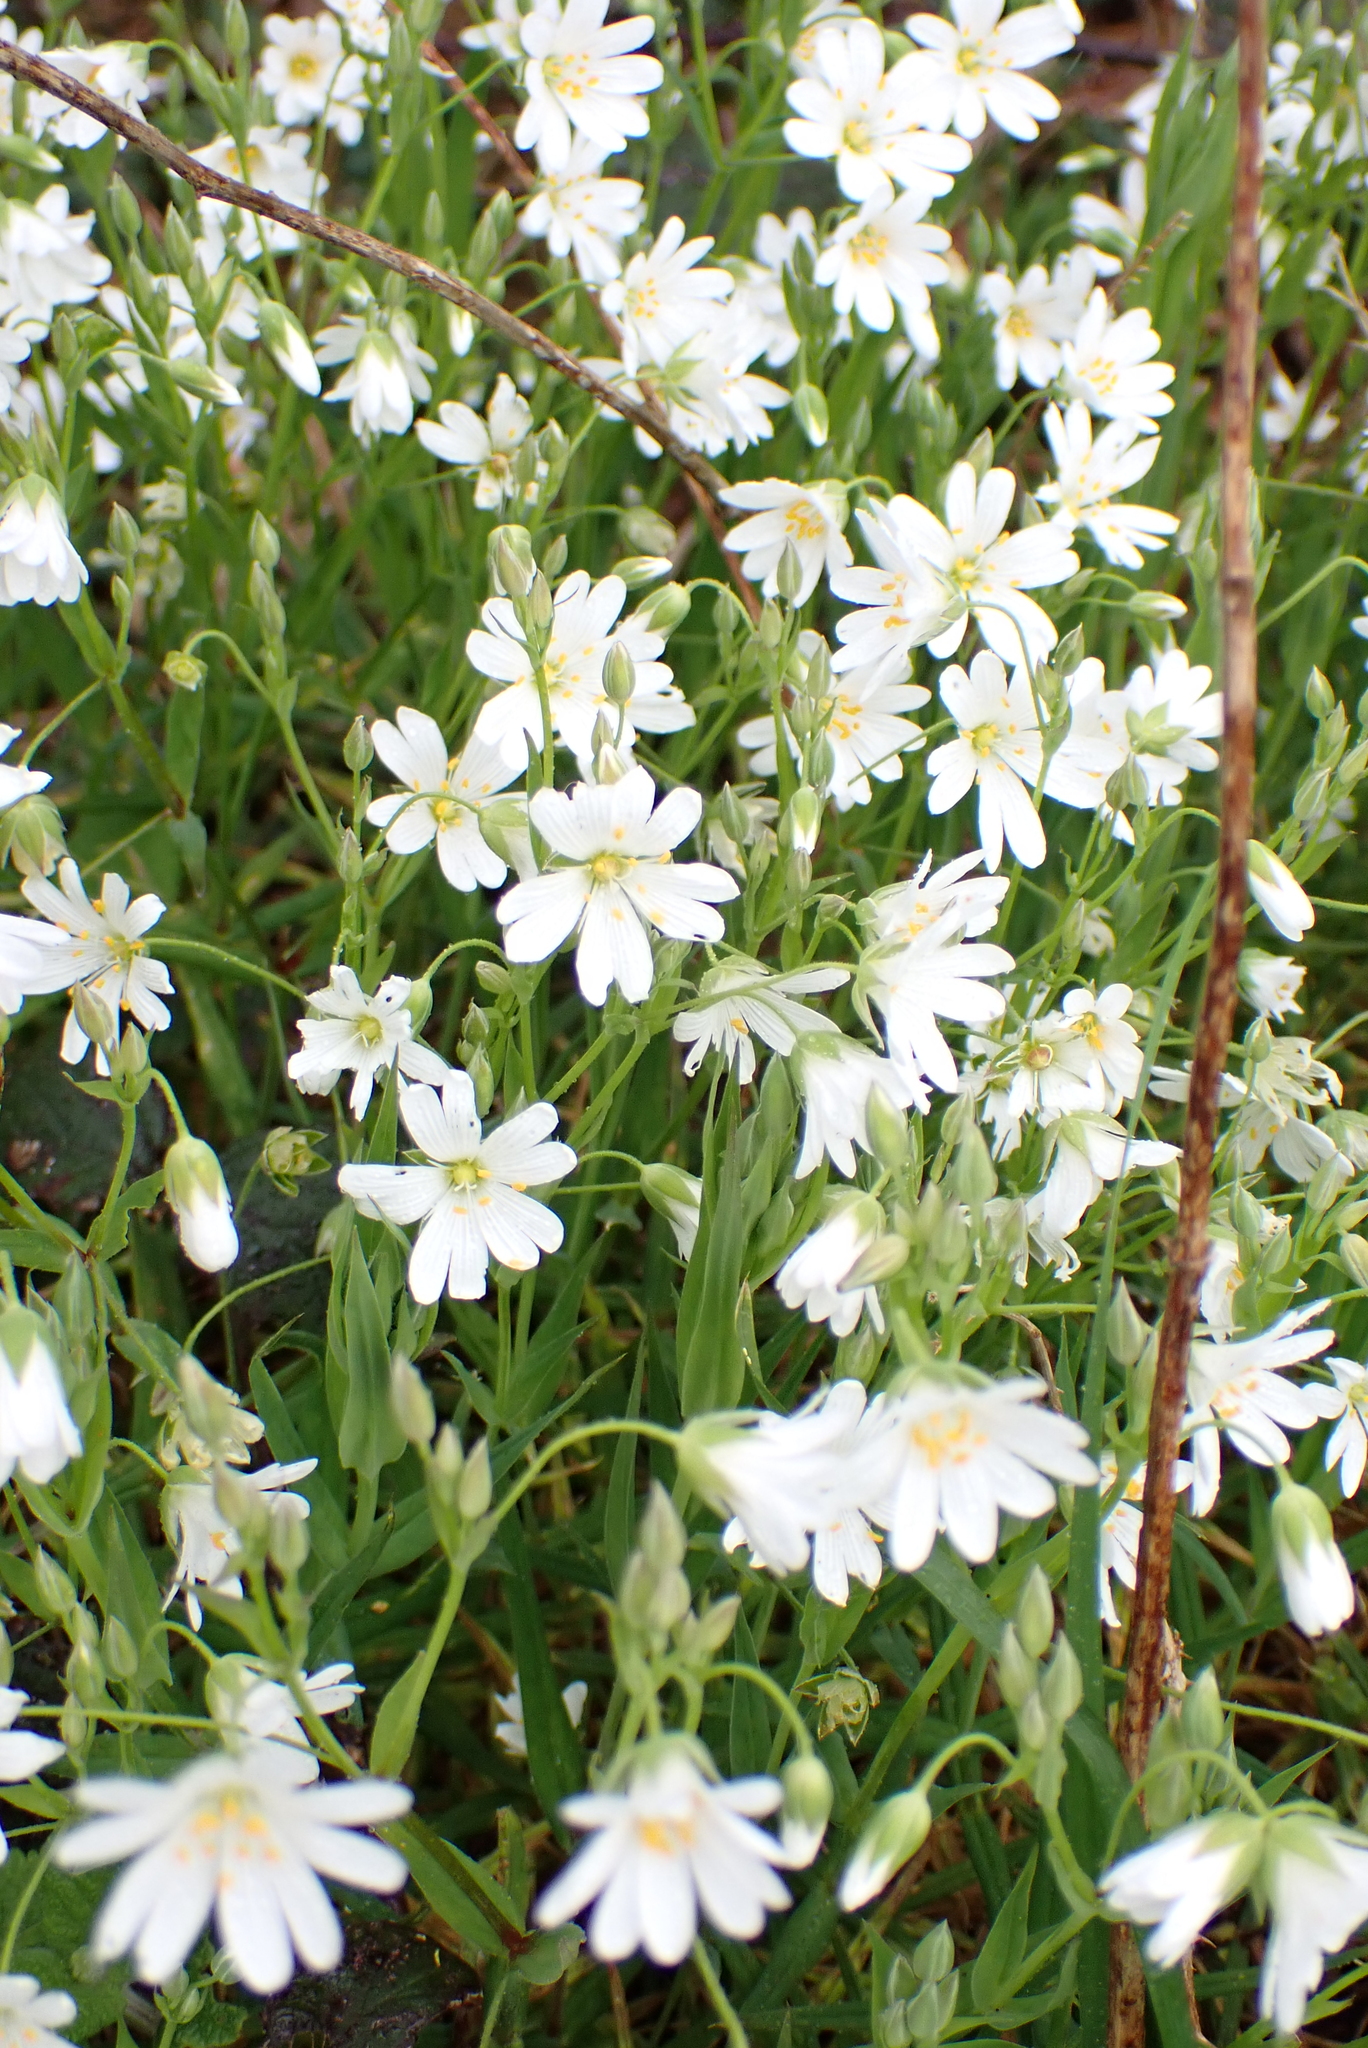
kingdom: Plantae
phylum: Tracheophyta
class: Magnoliopsida
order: Caryophyllales
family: Caryophyllaceae
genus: Rabelera
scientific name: Rabelera holostea
